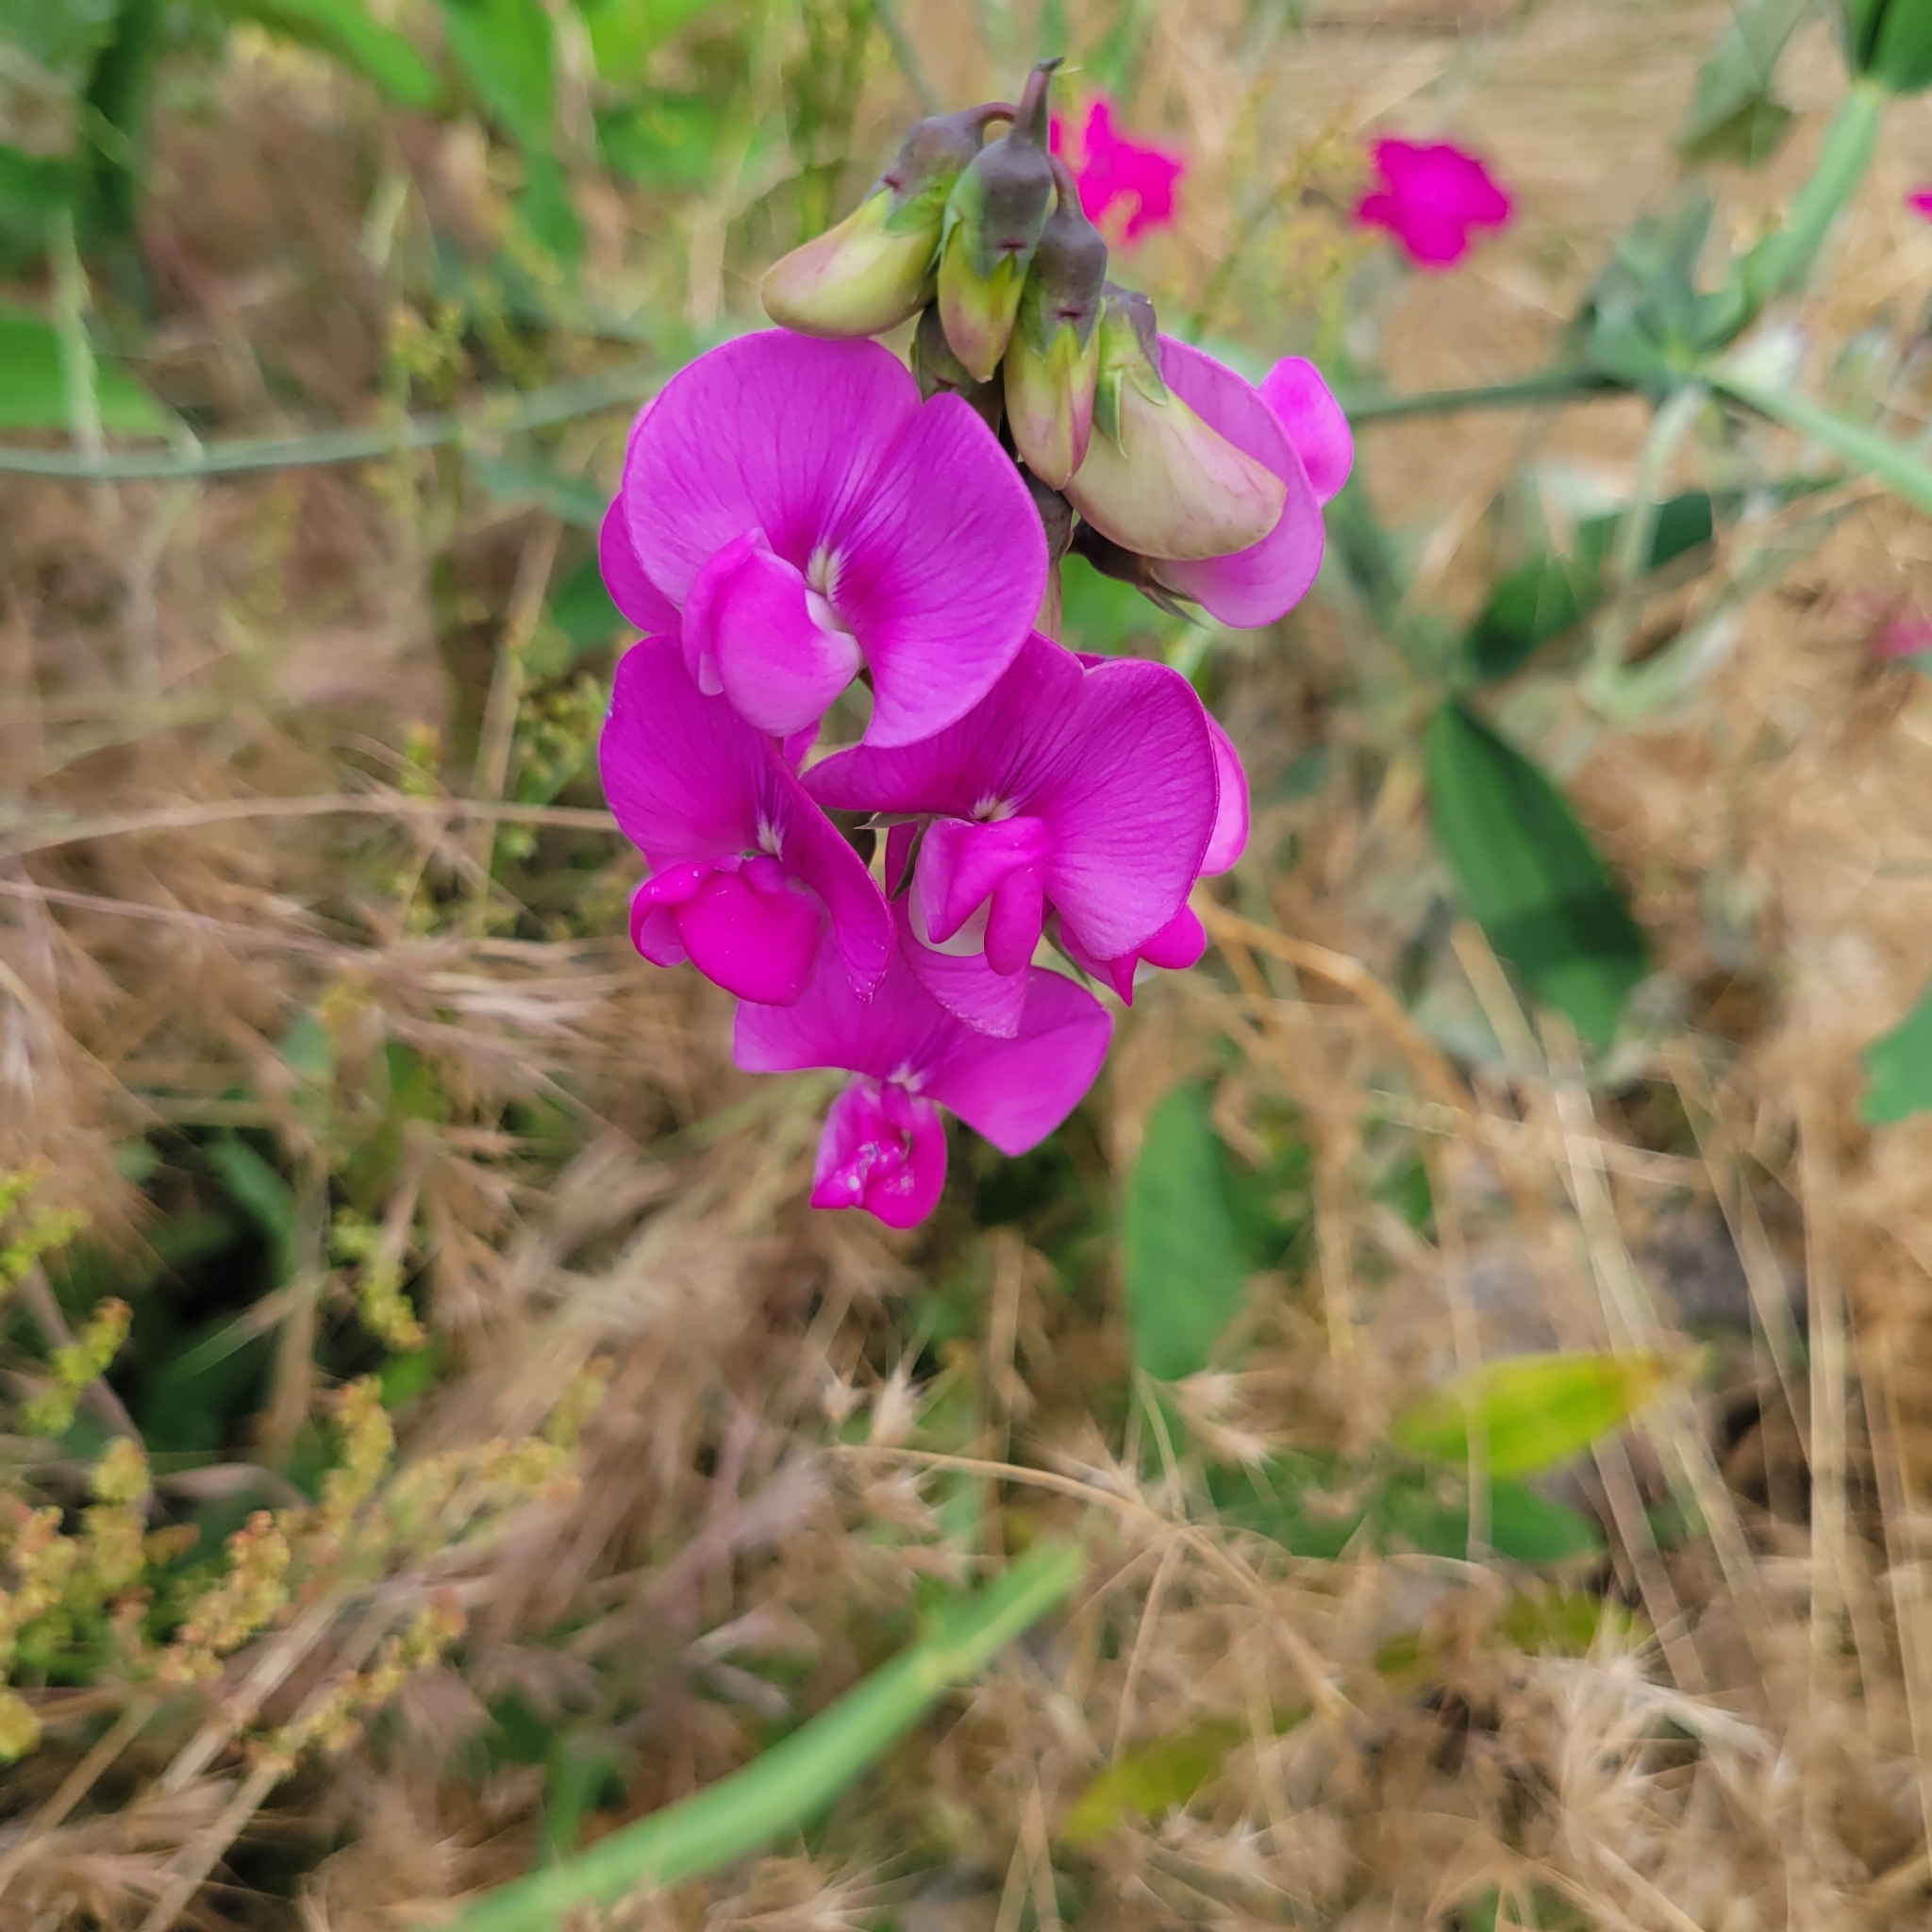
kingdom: Plantae
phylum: Tracheophyta
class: Magnoliopsida
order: Fabales
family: Fabaceae
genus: Lathyrus
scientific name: Lathyrus latifolius
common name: Perennial pea
